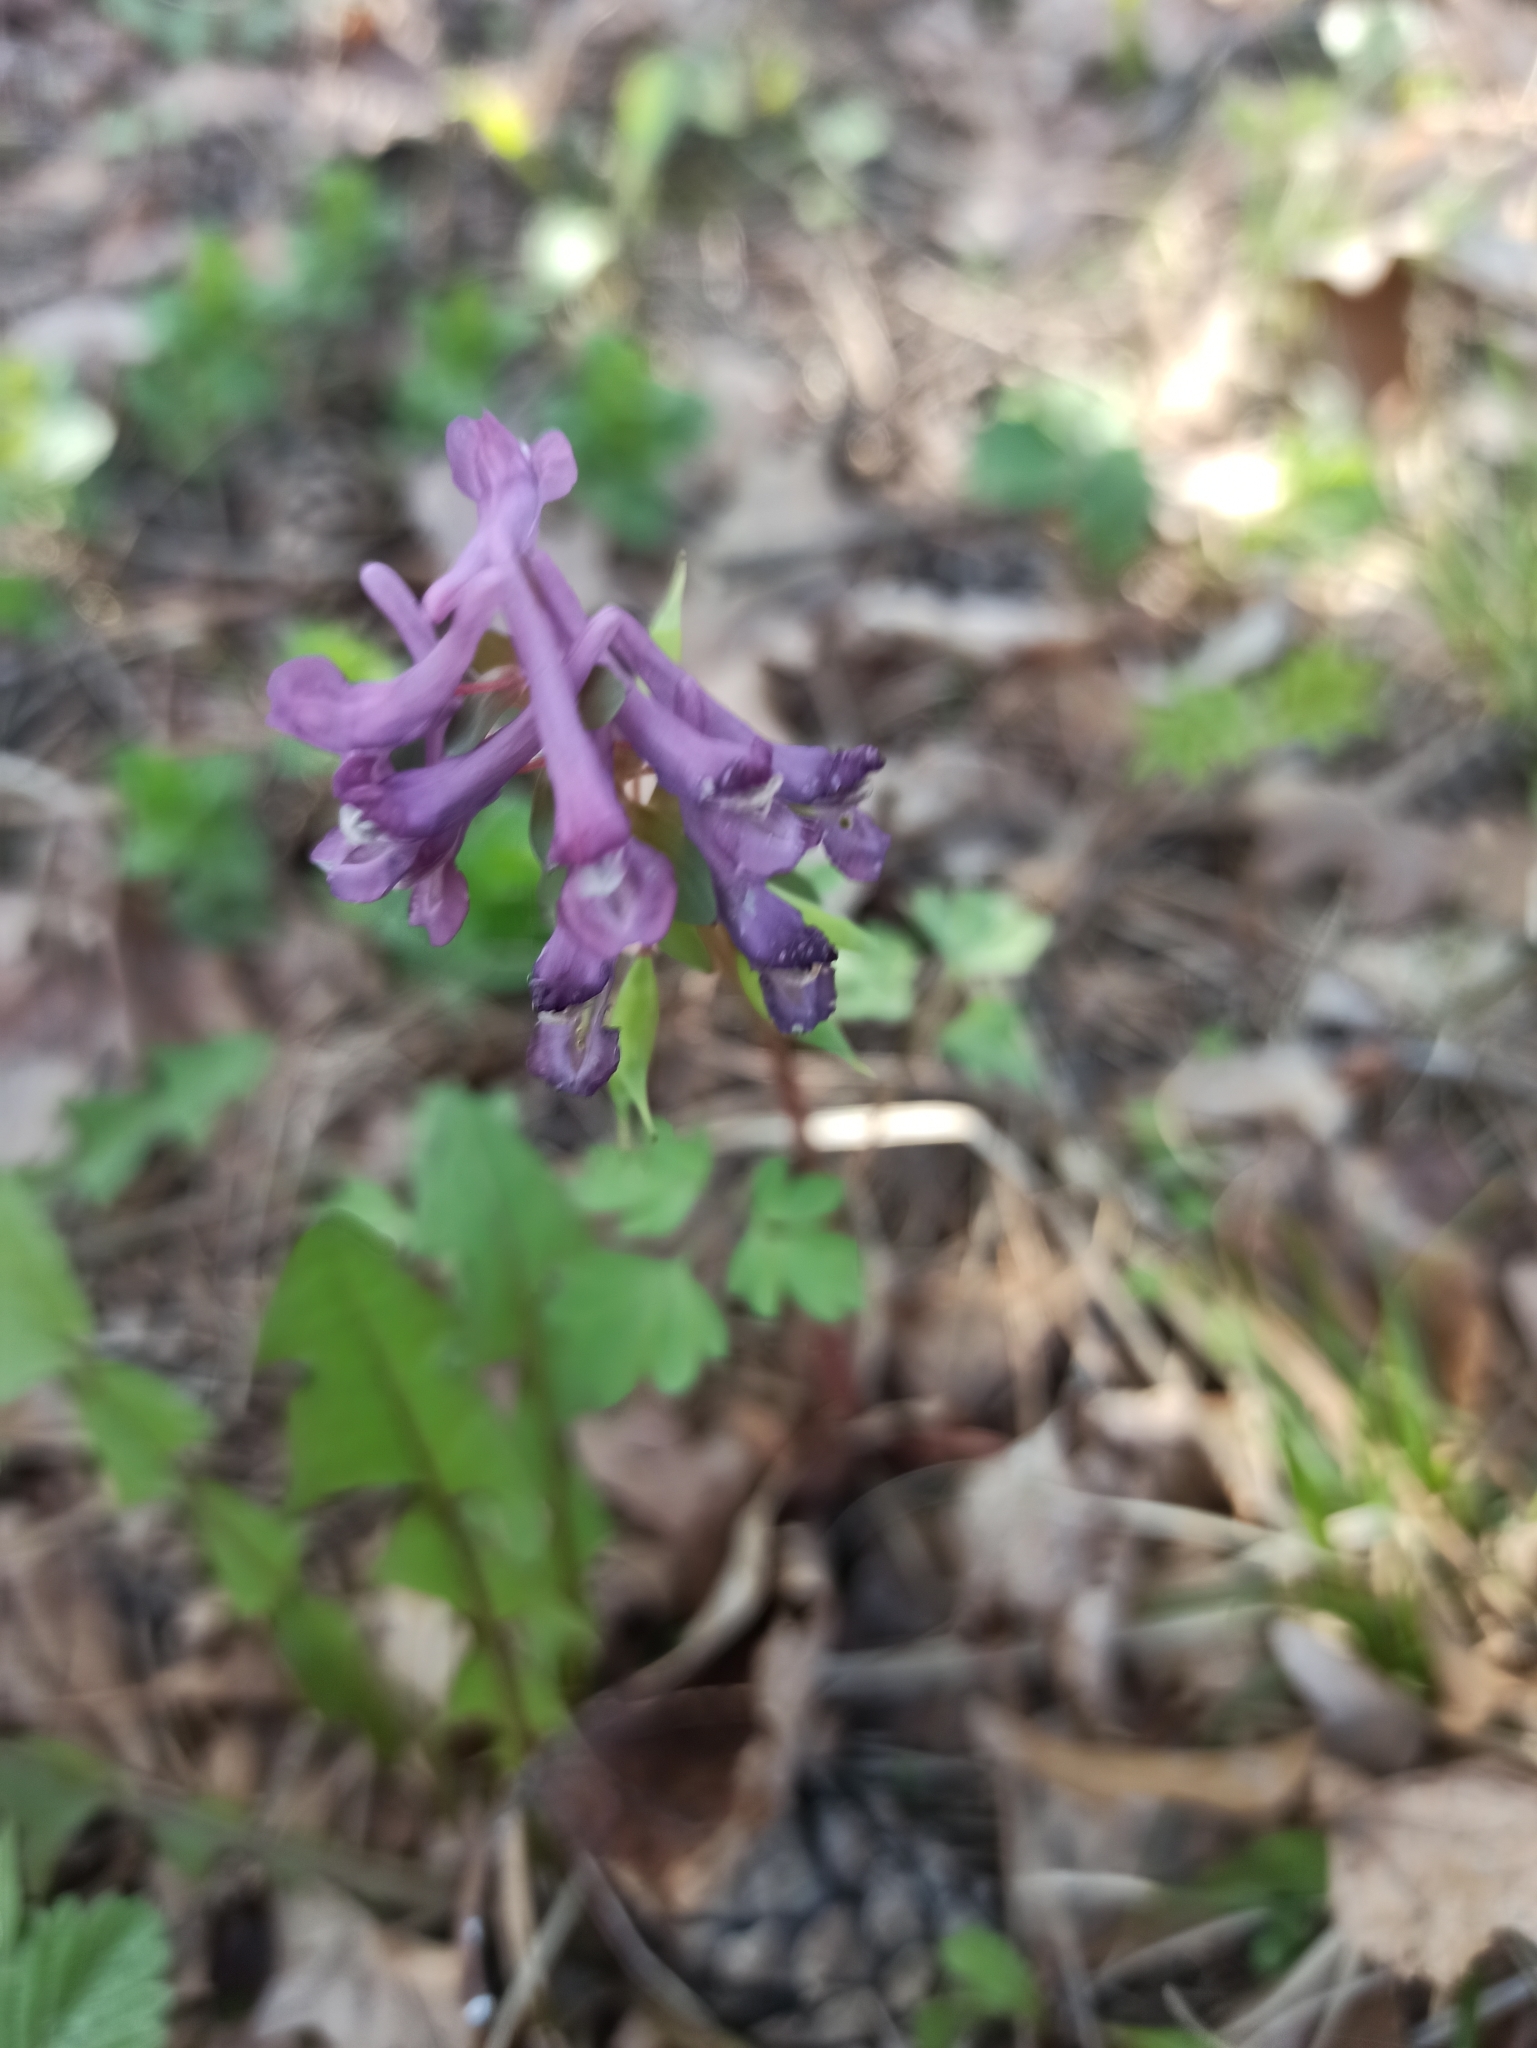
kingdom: Plantae
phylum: Tracheophyta
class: Magnoliopsida
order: Ranunculales
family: Papaveraceae
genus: Corydalis
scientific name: Corydalis solida
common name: Bird-in-a-bush
